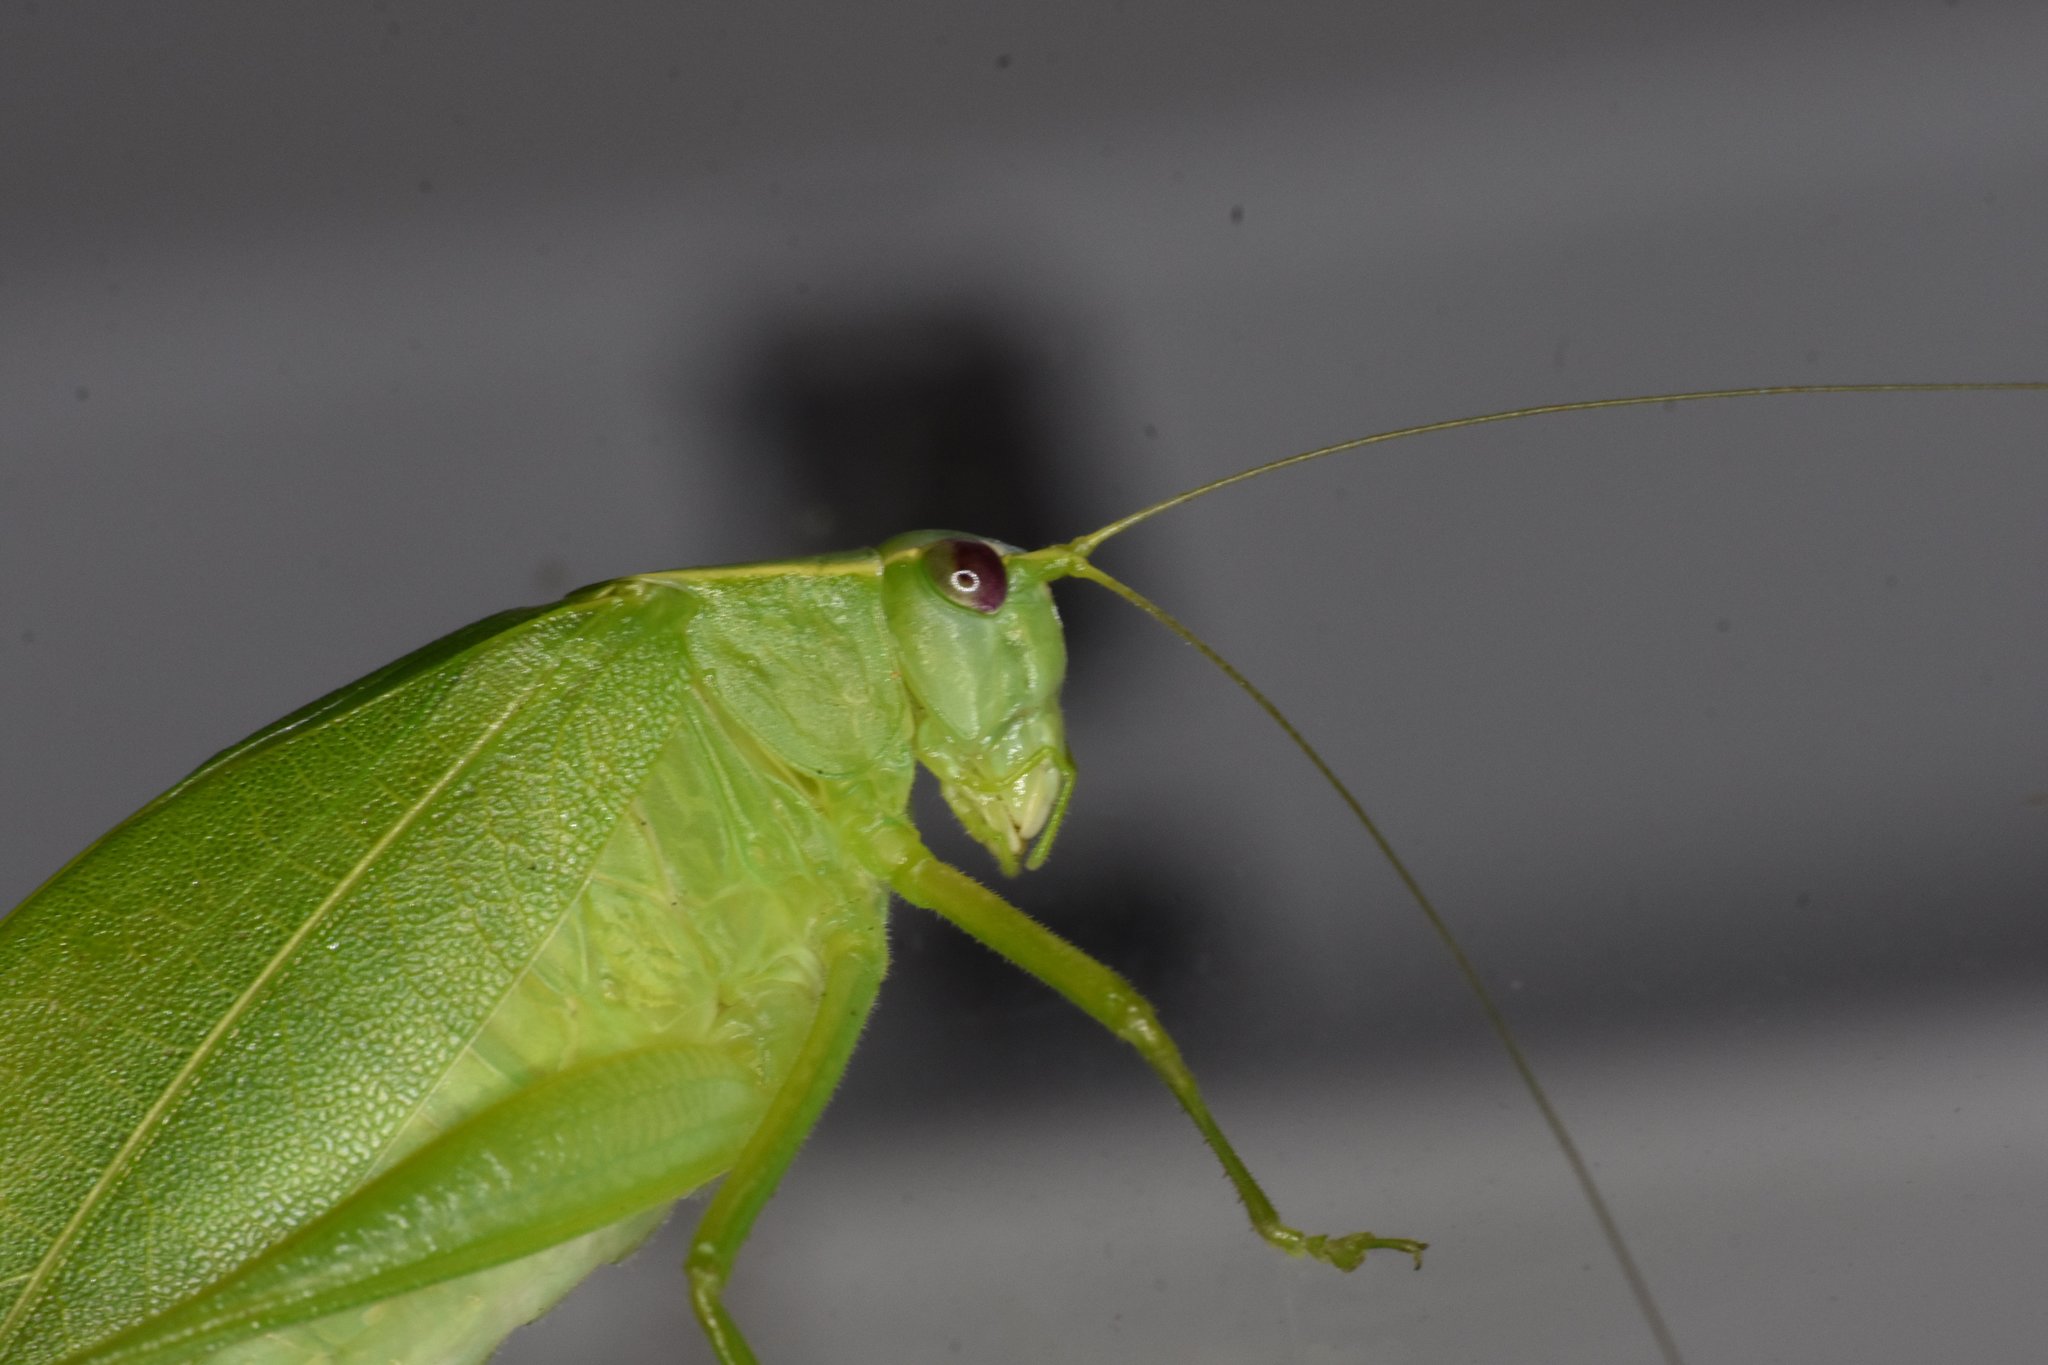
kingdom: Animalia
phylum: Arthropoda
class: Insecta
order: Orthoptera
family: Tettigoniidae
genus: Turpilia
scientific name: Turpilia rostrata
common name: Narrow-beaked katydid
